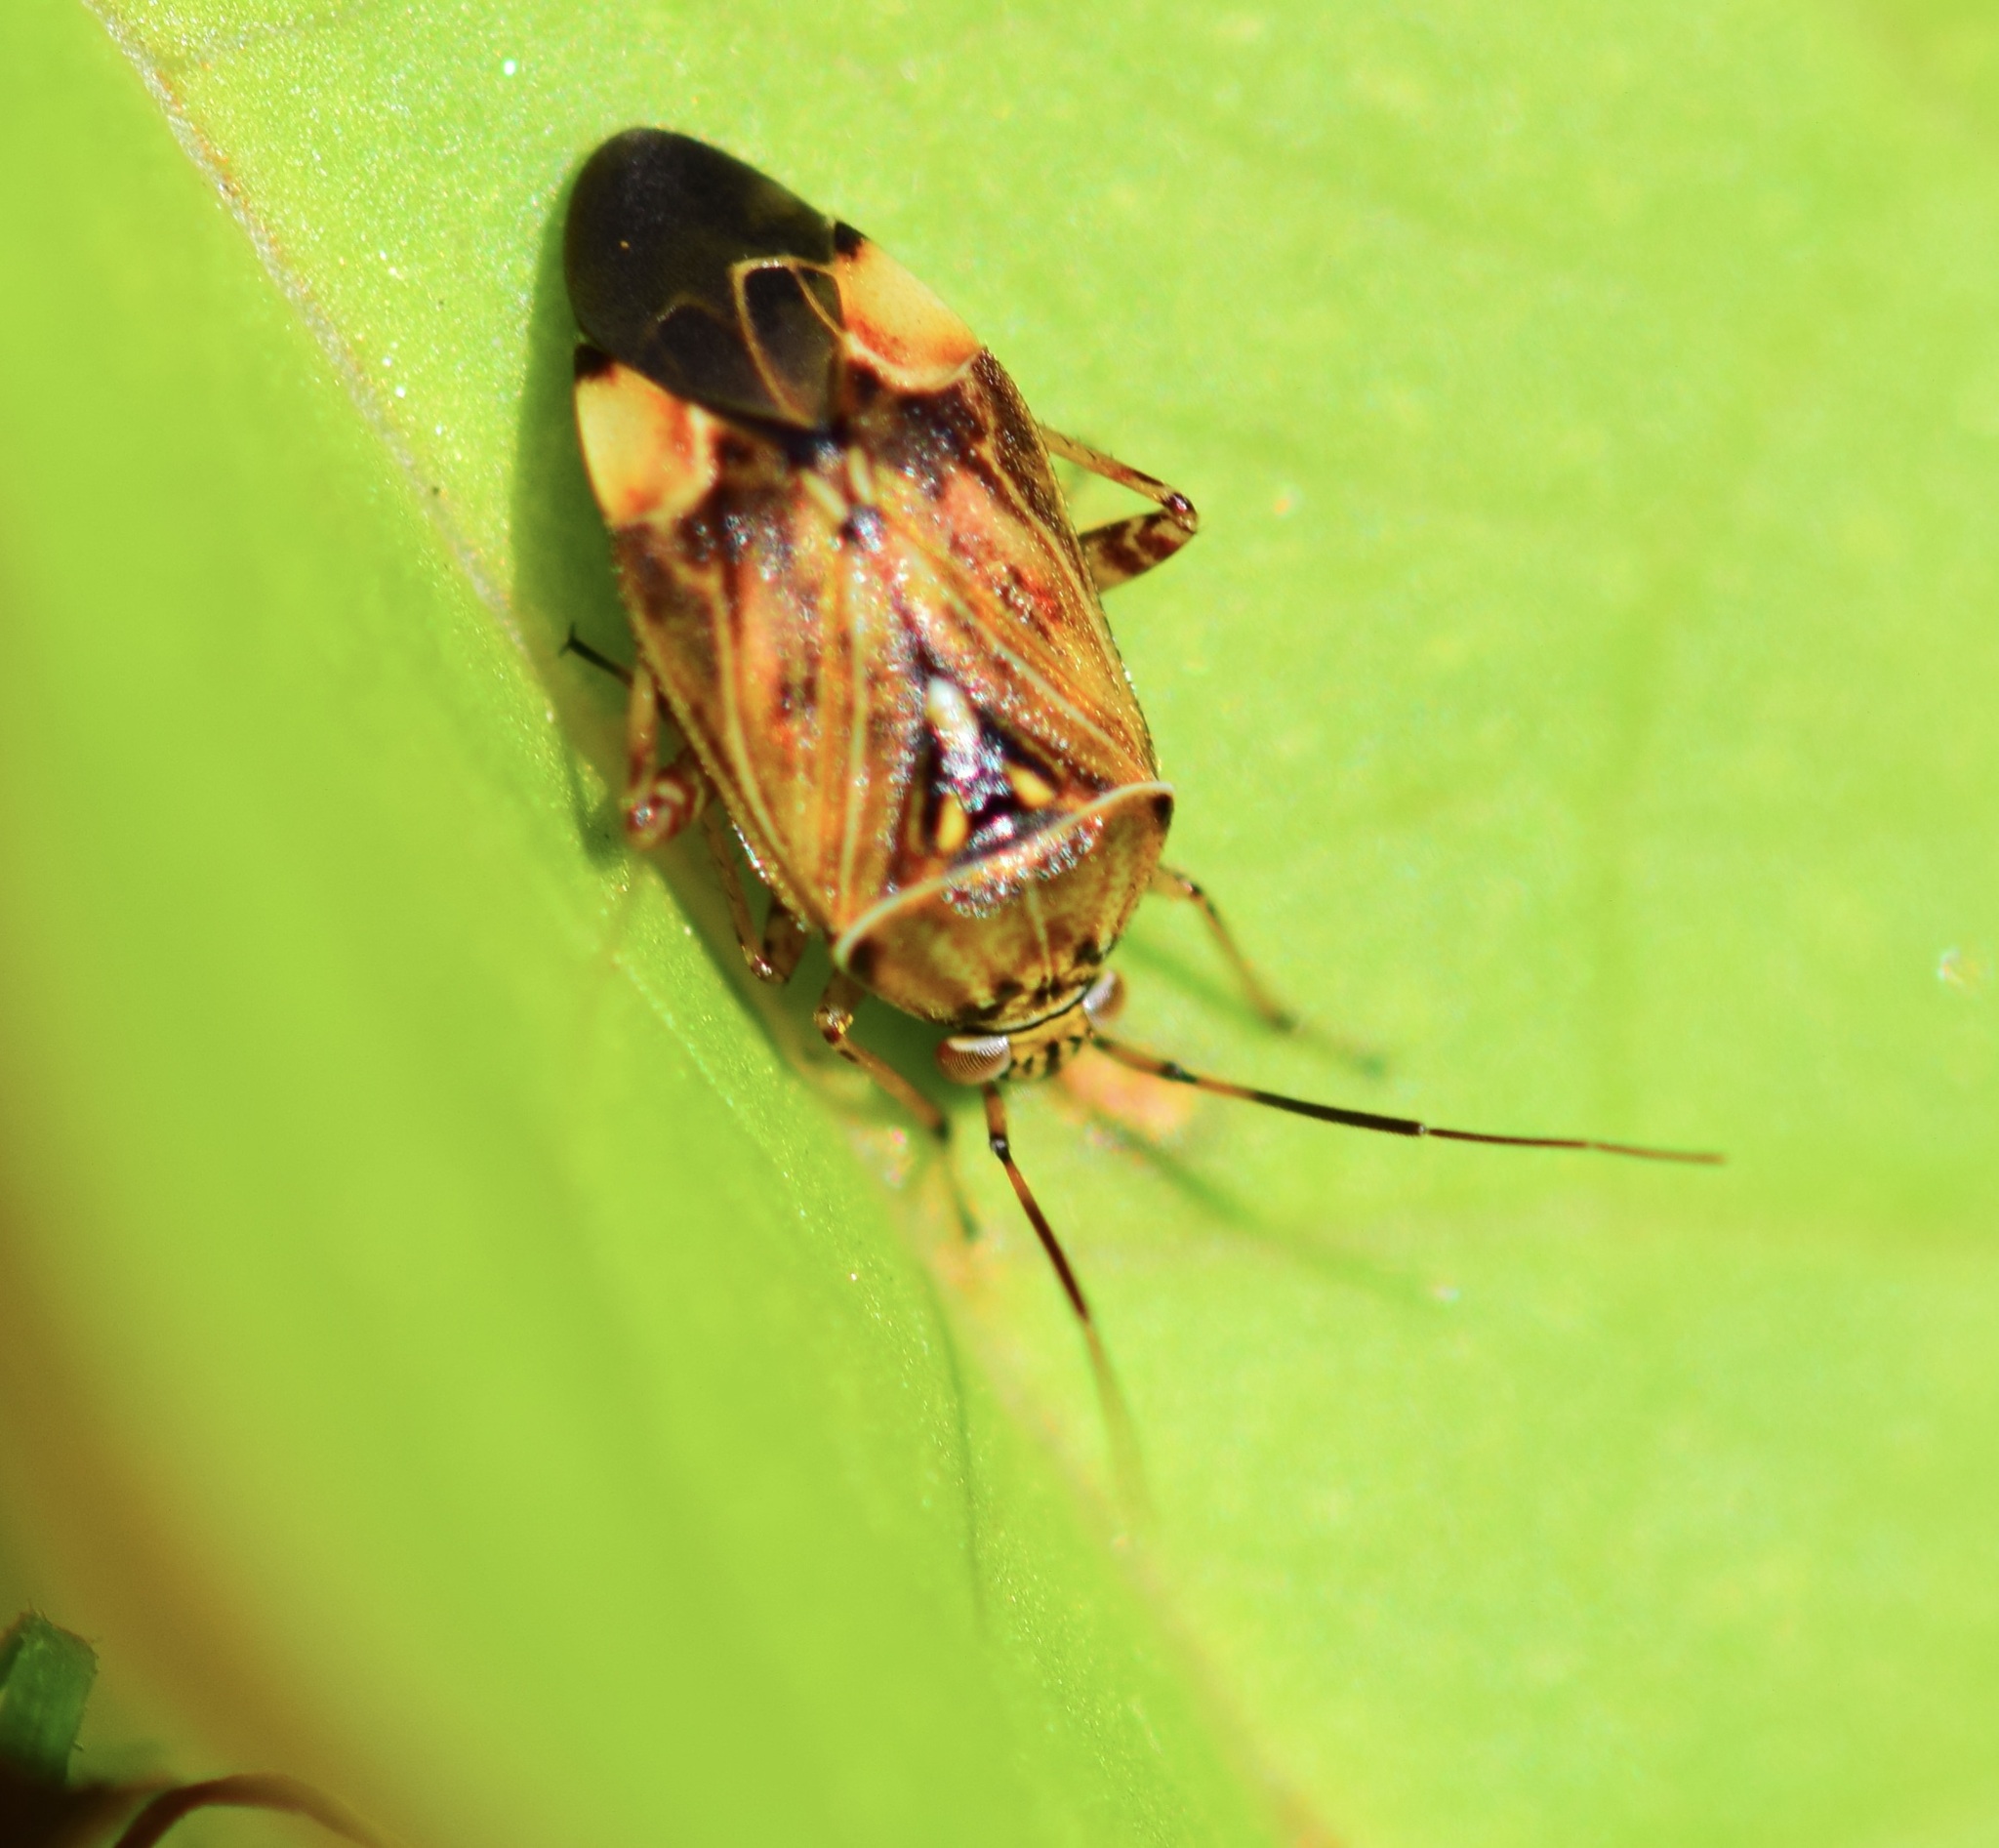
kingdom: Animalia
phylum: Arthropoda
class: Insecta
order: Hemiptera
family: Miridae
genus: Lygus
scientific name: Lygus lineolaris
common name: North american tarnished plant bug
